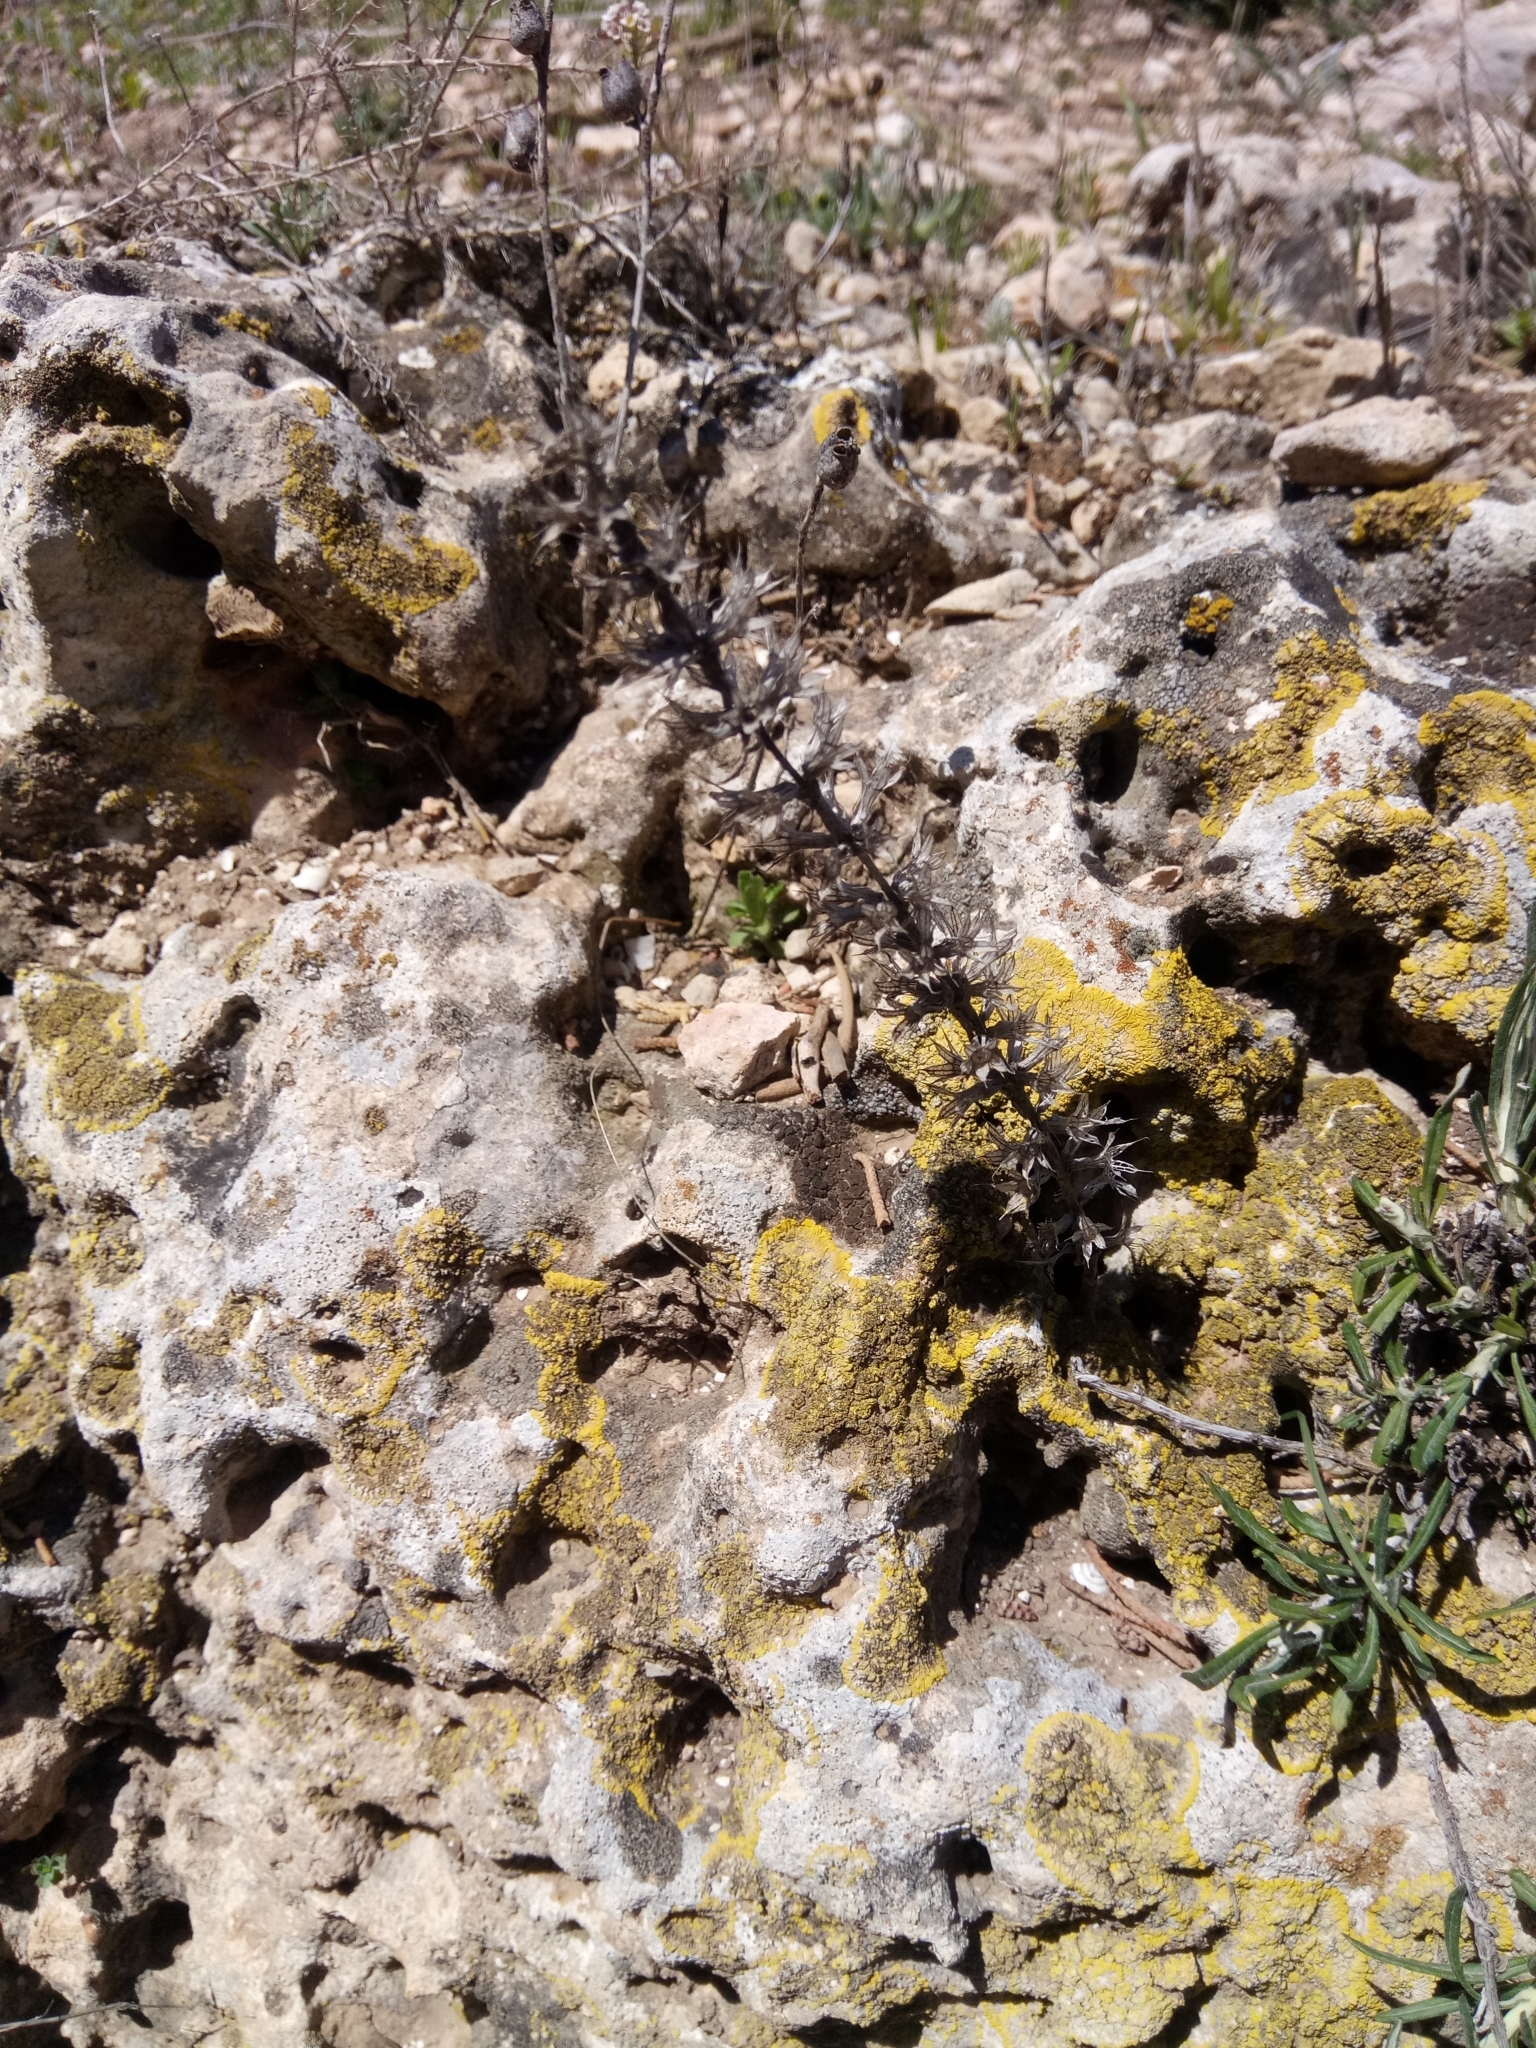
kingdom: Plantae
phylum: Tracheophyta
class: Magnoliopsida
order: Lamiales
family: Lamiaceae
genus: Sideritis
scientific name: Sideritis montana
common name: Mountain ironwort
